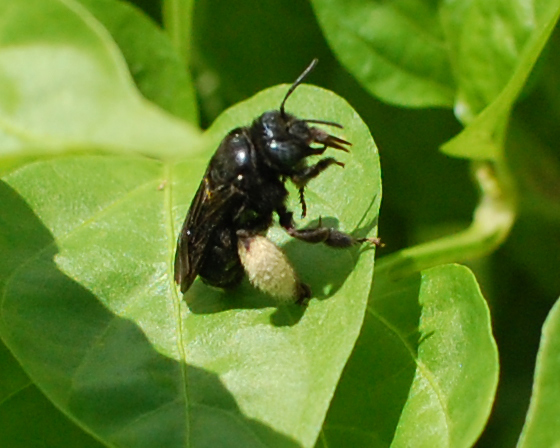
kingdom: Animalia
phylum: Arthropoda
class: Insecta
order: Hymenoptera
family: Apidae
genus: Melissodes
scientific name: Melissodes bimaculatus
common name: Two-spotted long-horned bee
